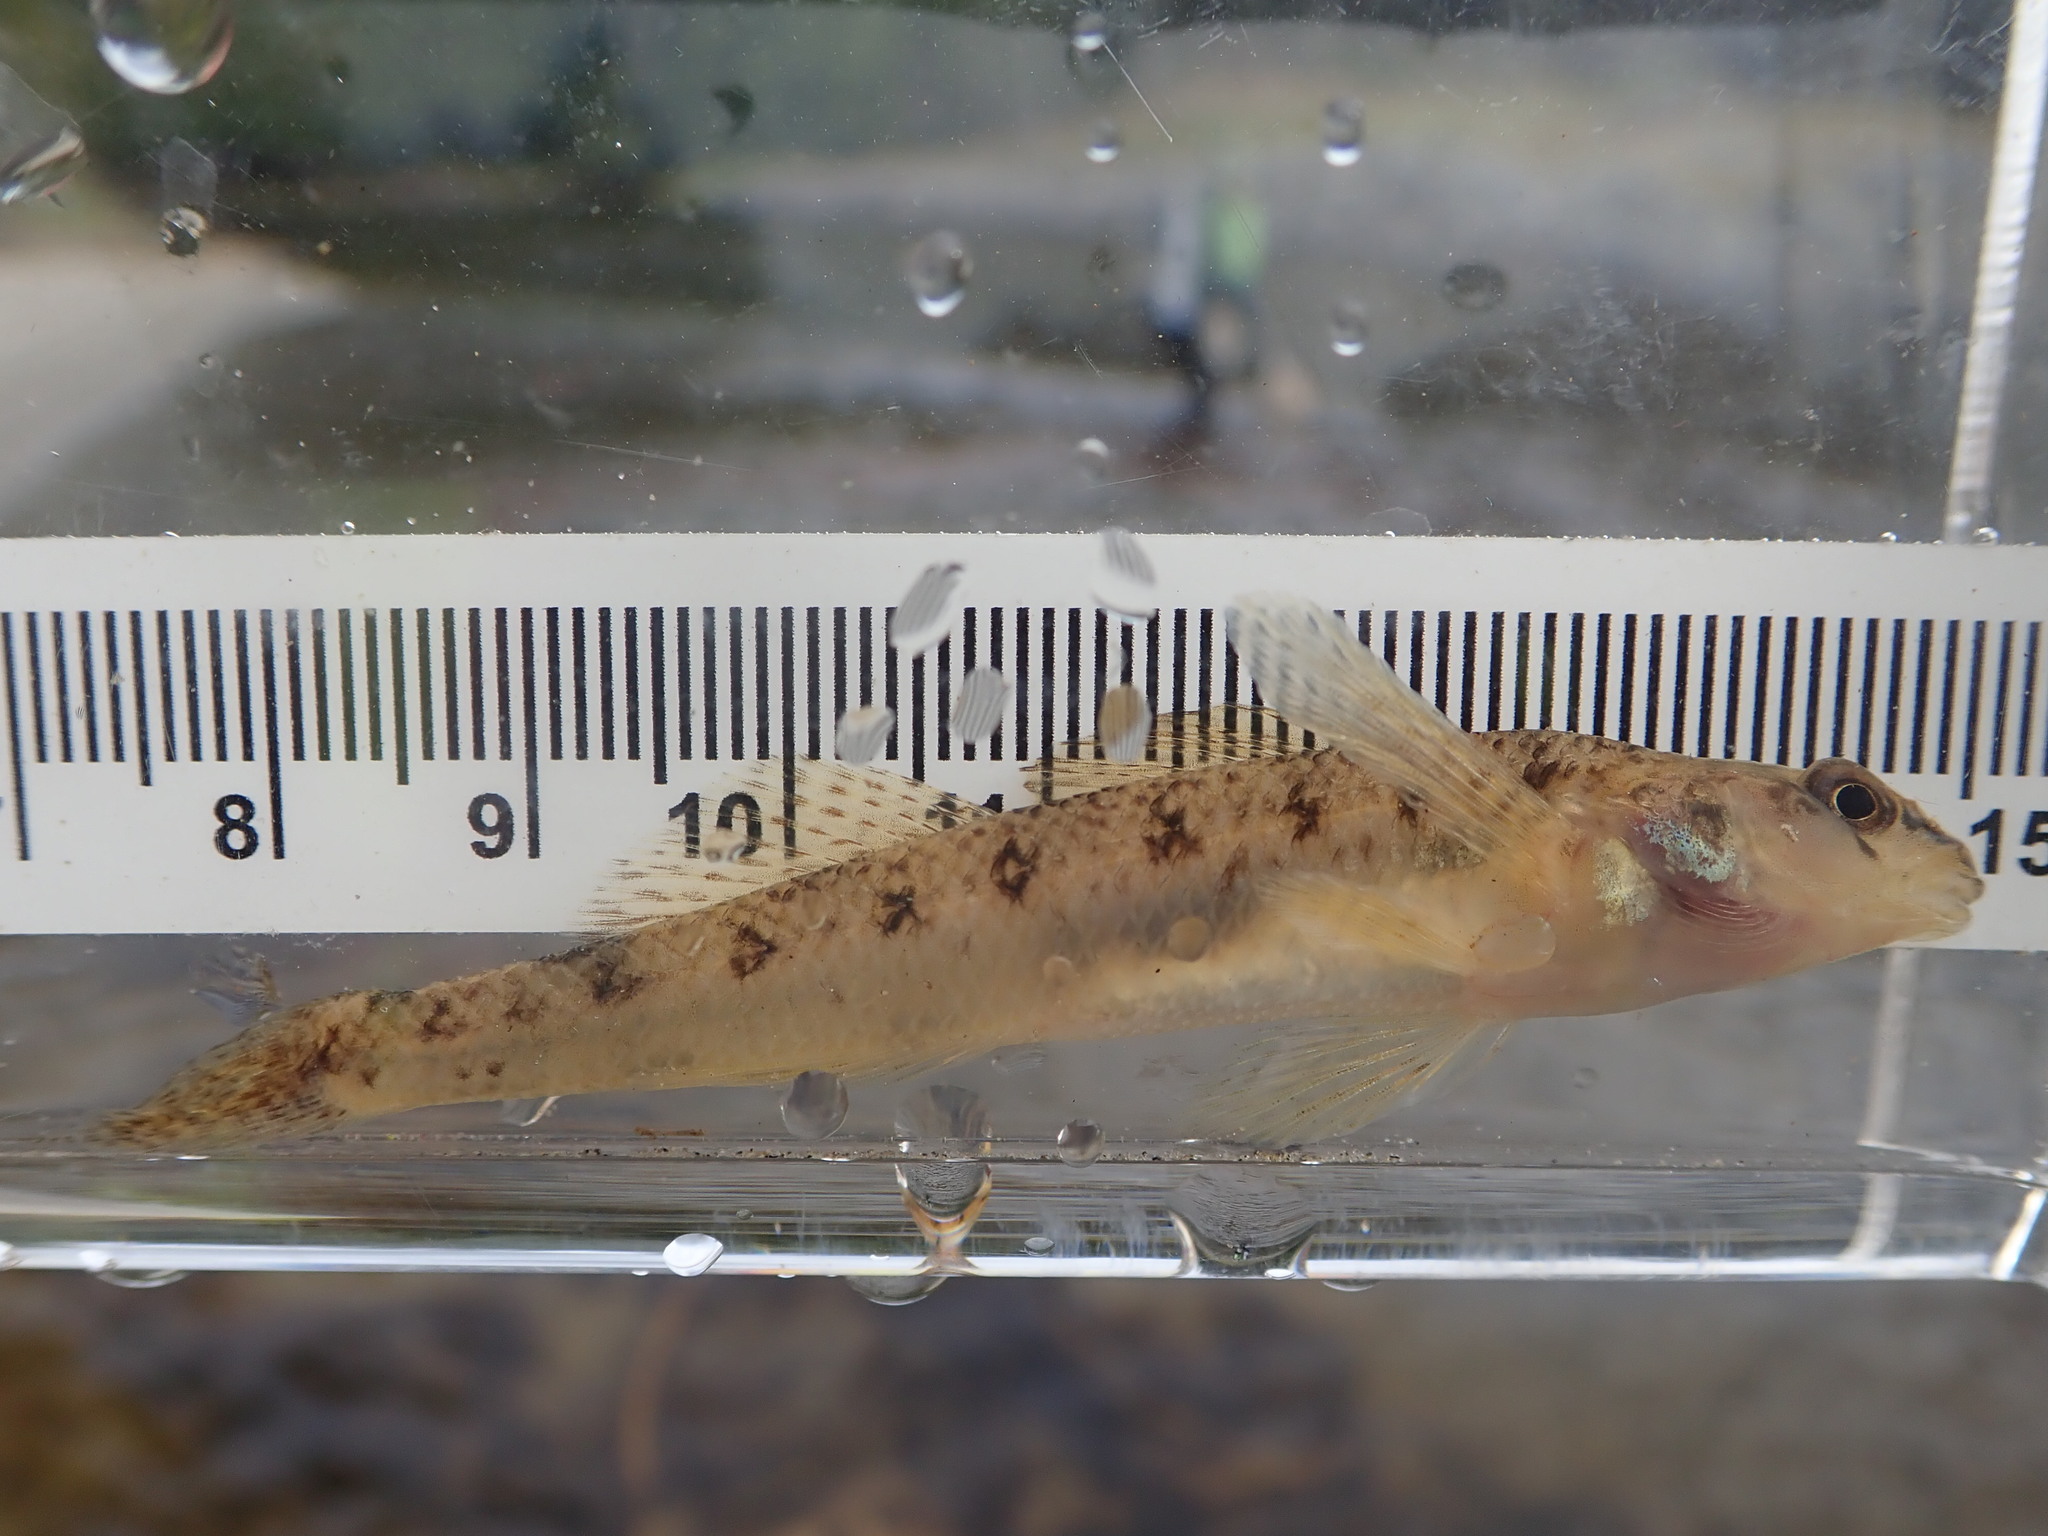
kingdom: Animalia
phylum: Chordata
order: Perciformes
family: Percidae
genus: Etheostoma
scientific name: Etheostoma nigrum
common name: Johnny darter
